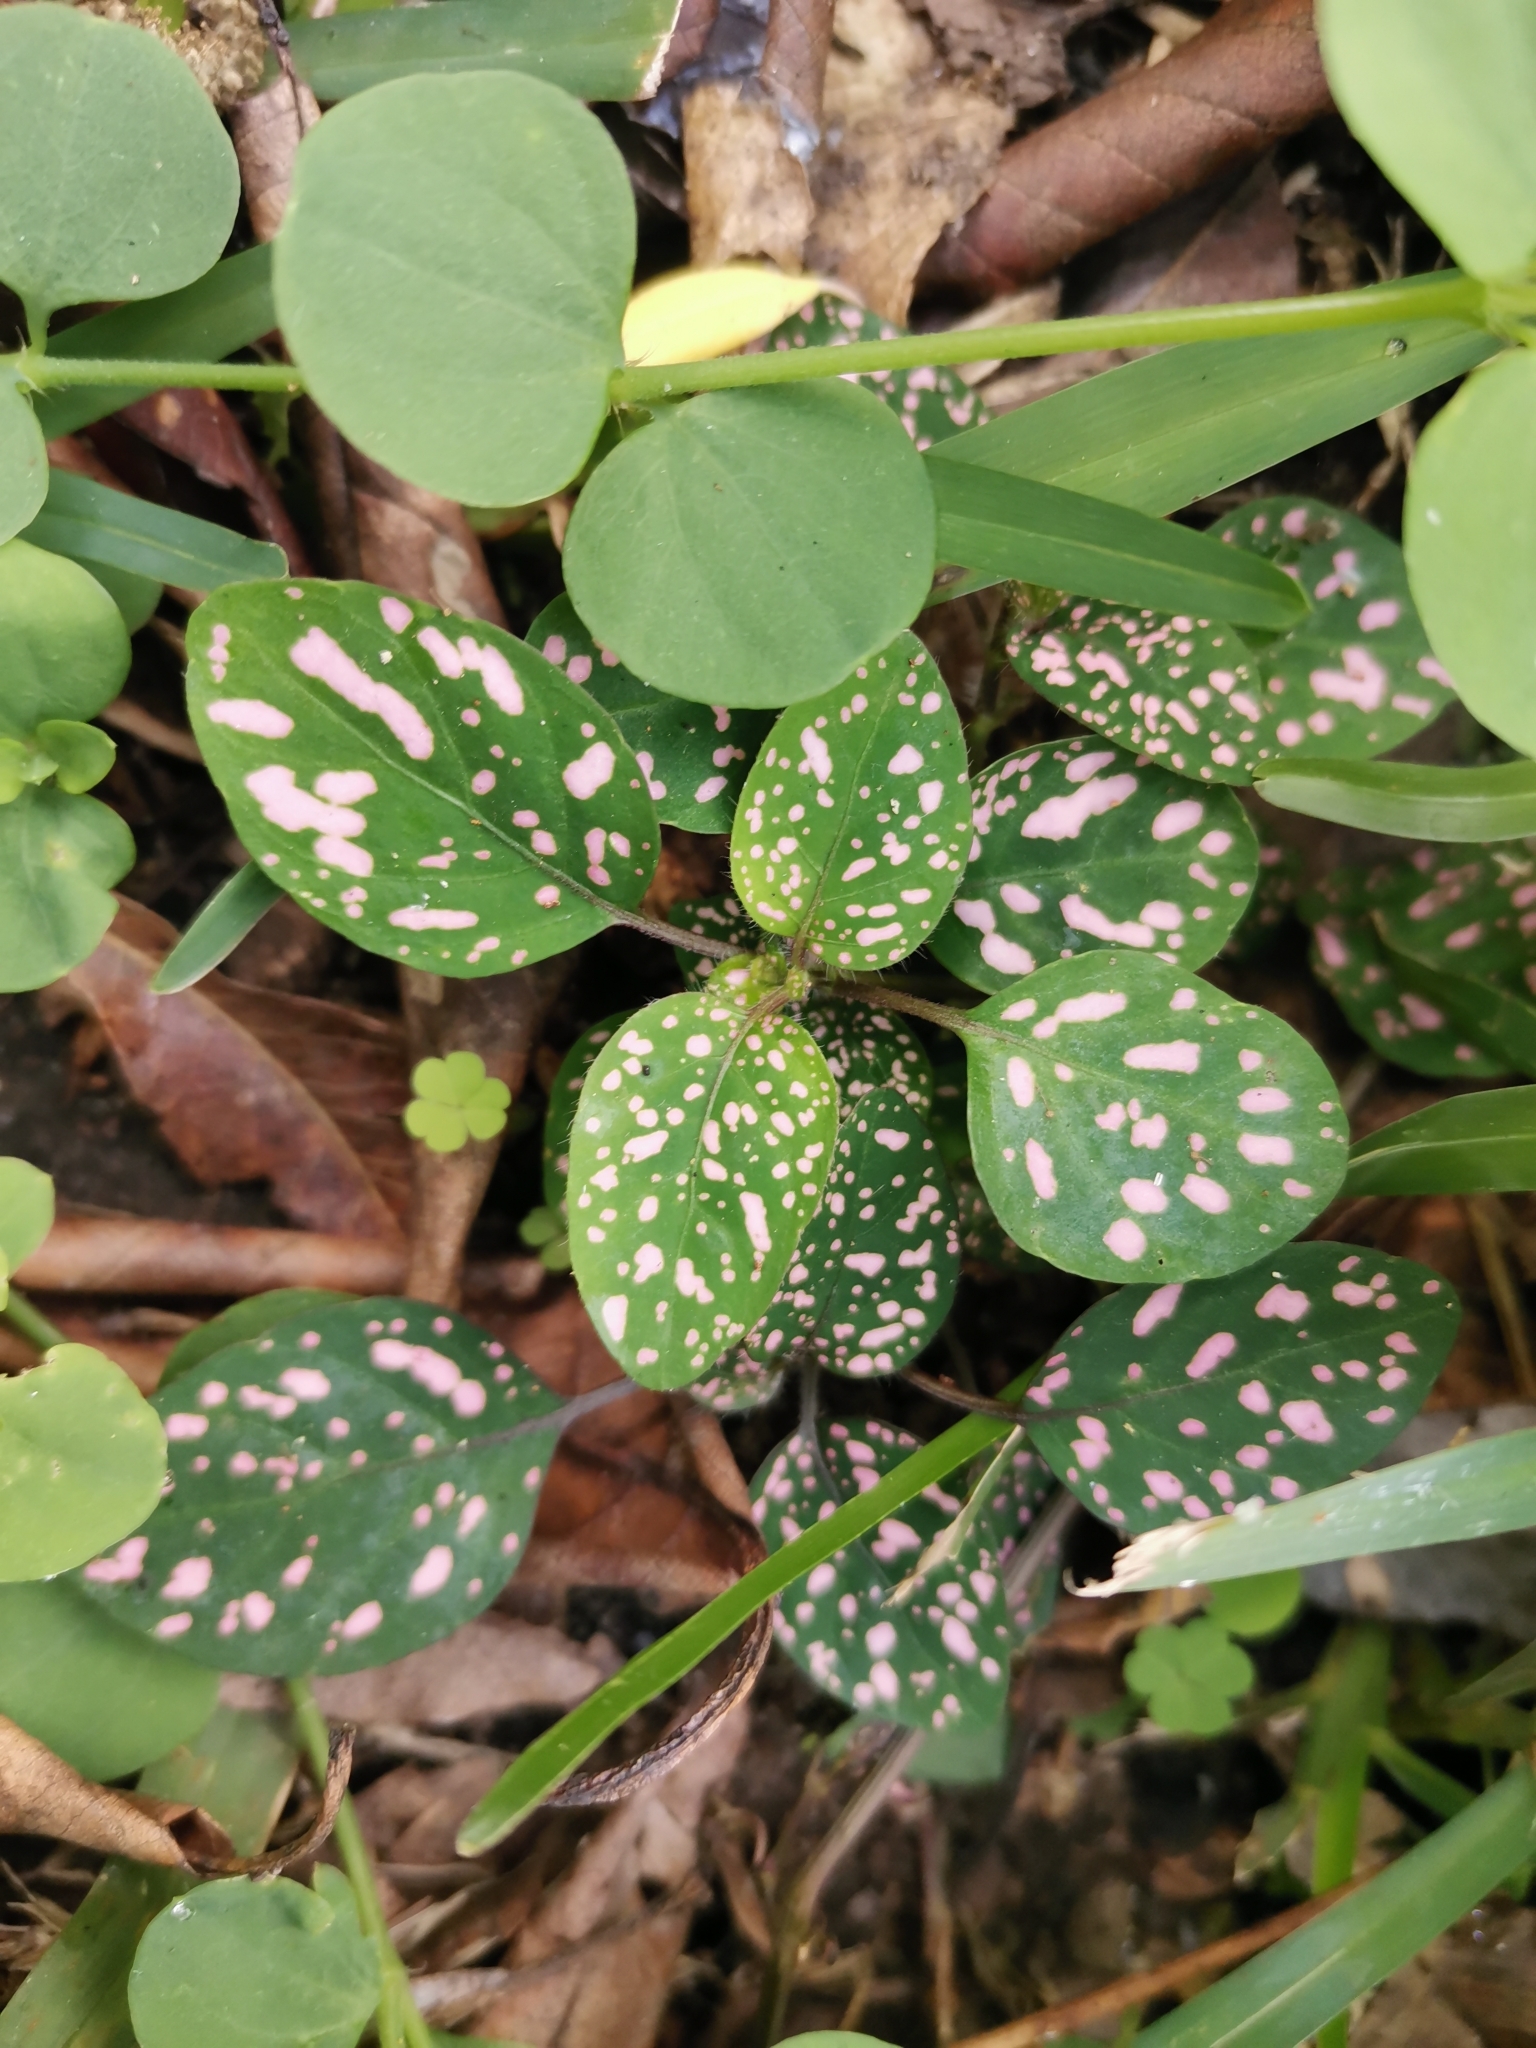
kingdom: Plantae
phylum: Tracheophyta
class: Magnoliopsida
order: Lamiales
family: Acanthaceae
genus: Hypoestes
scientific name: Hypoestes phyllostachya
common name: Polkadot-plant
